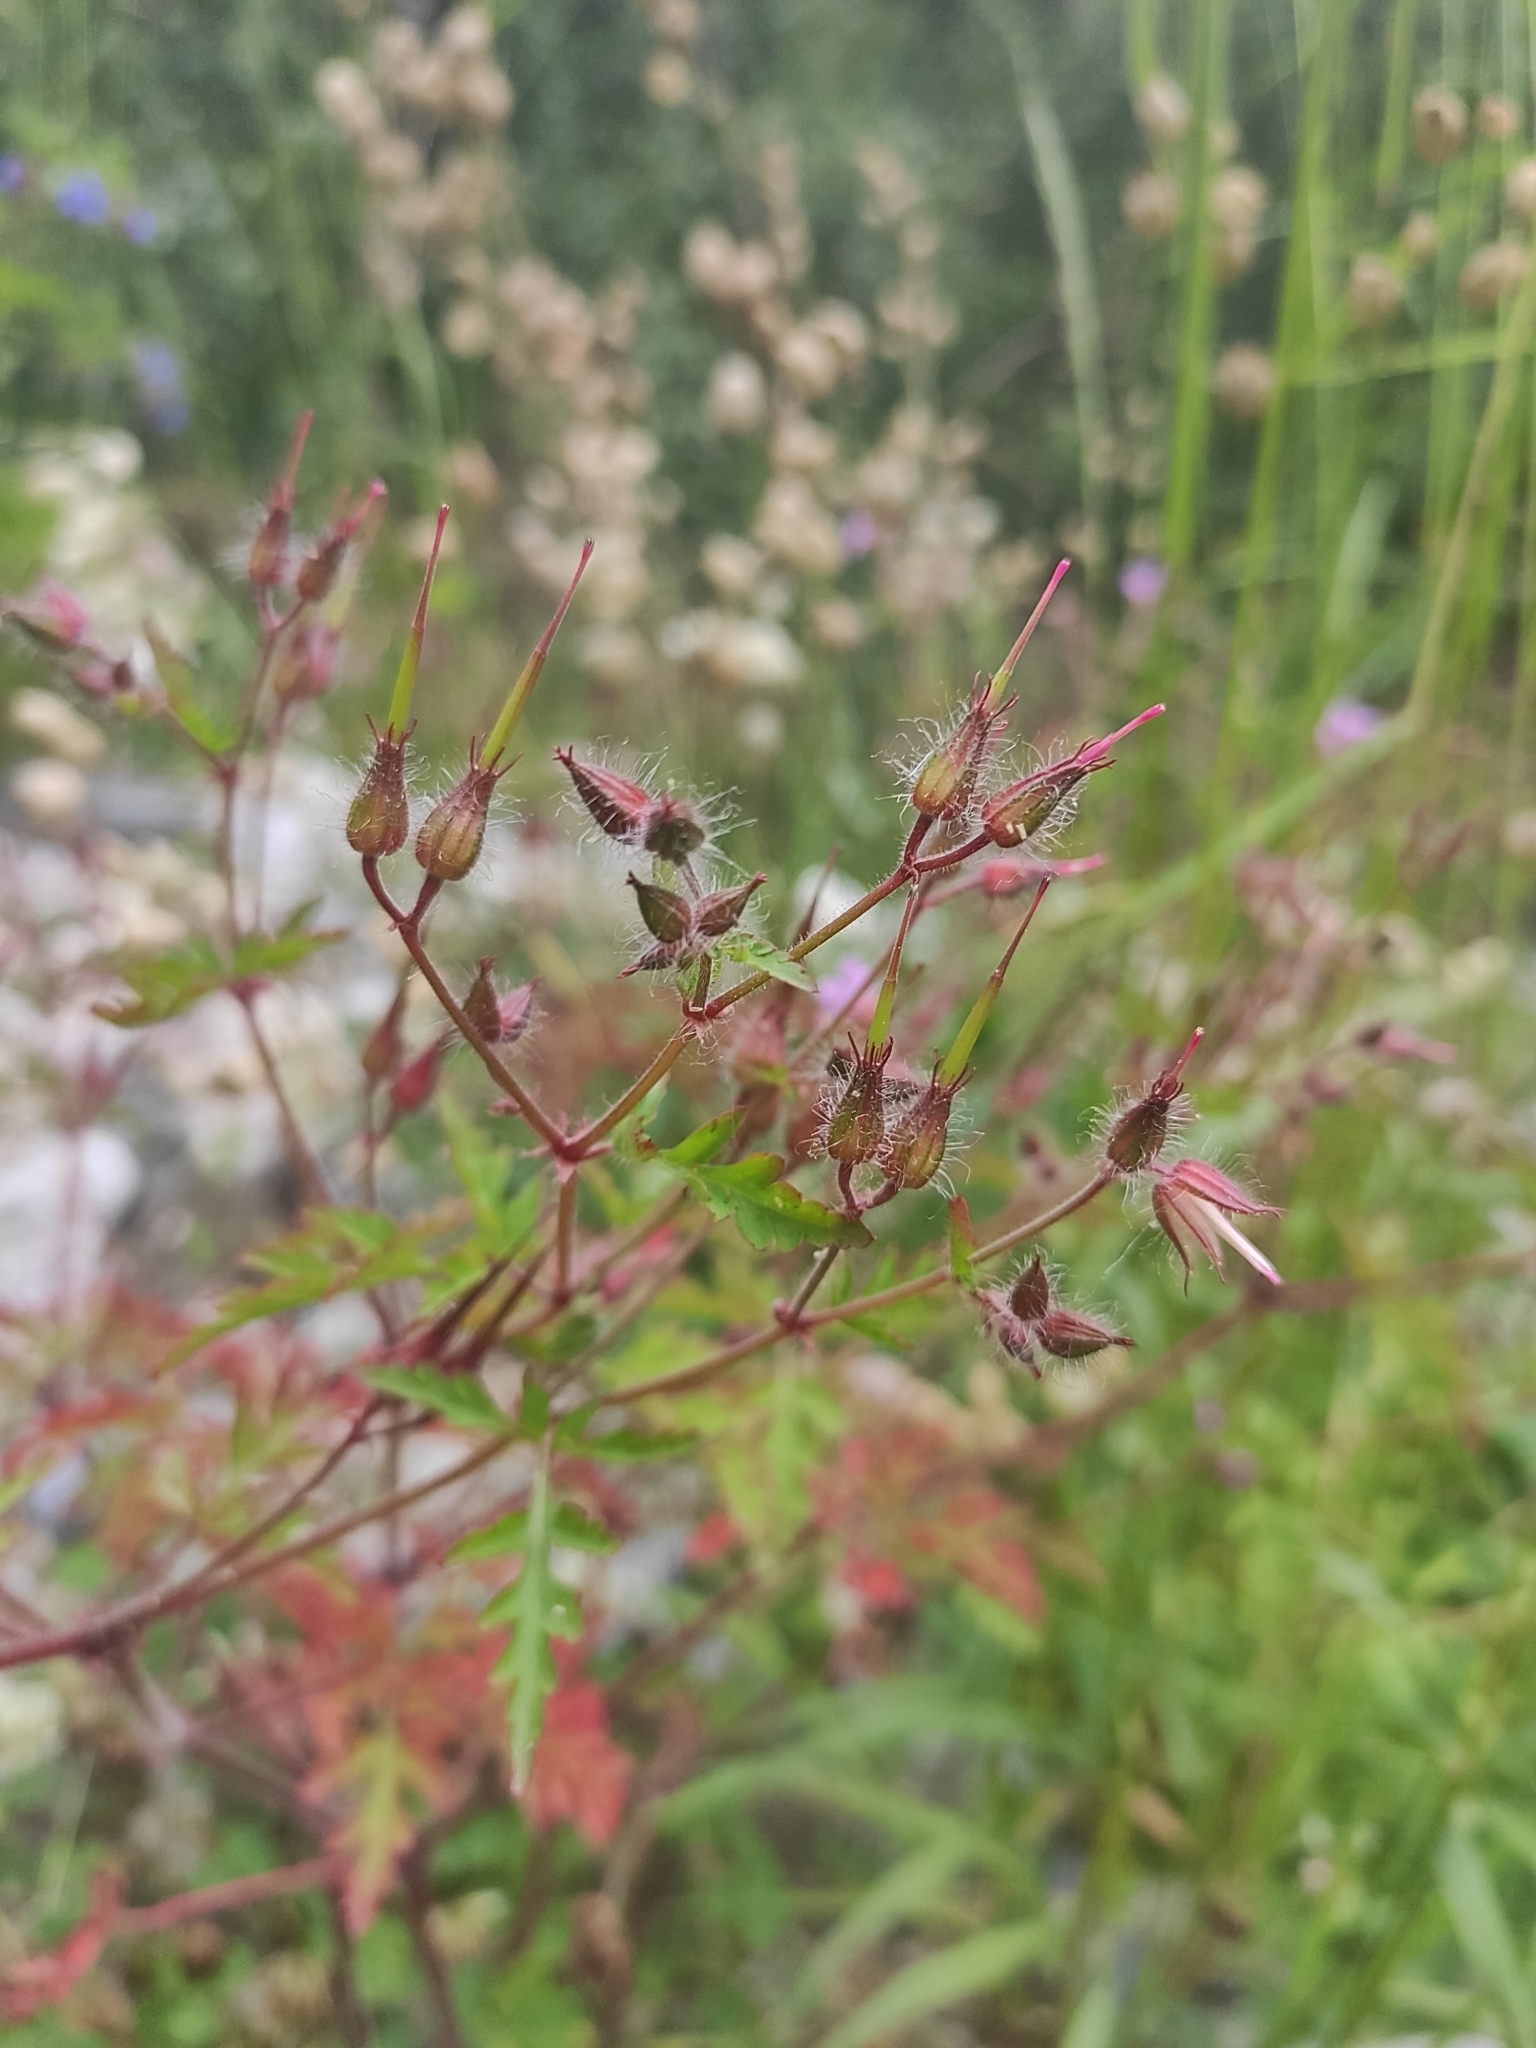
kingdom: Plantae
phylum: Tracheophyta
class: Magnoliopsida
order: Geraniales
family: Geraniaceae
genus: Geranium
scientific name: Geranium robertianum
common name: Herb-robert
